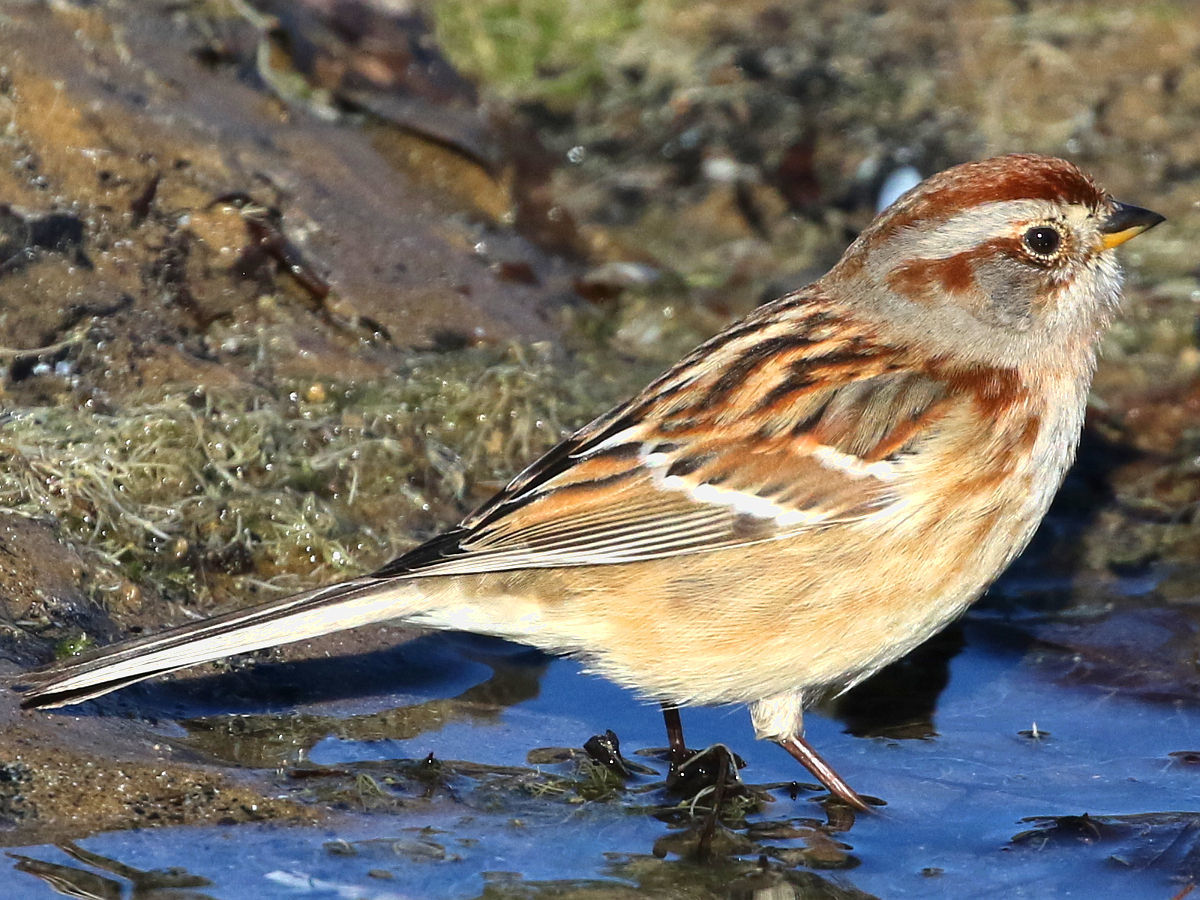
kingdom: Animalia
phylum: Chordata
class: Aves
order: Passeriformes
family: Passerellidae
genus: Spizelloides
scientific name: Spizelloides arborea
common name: American tree sparrow
